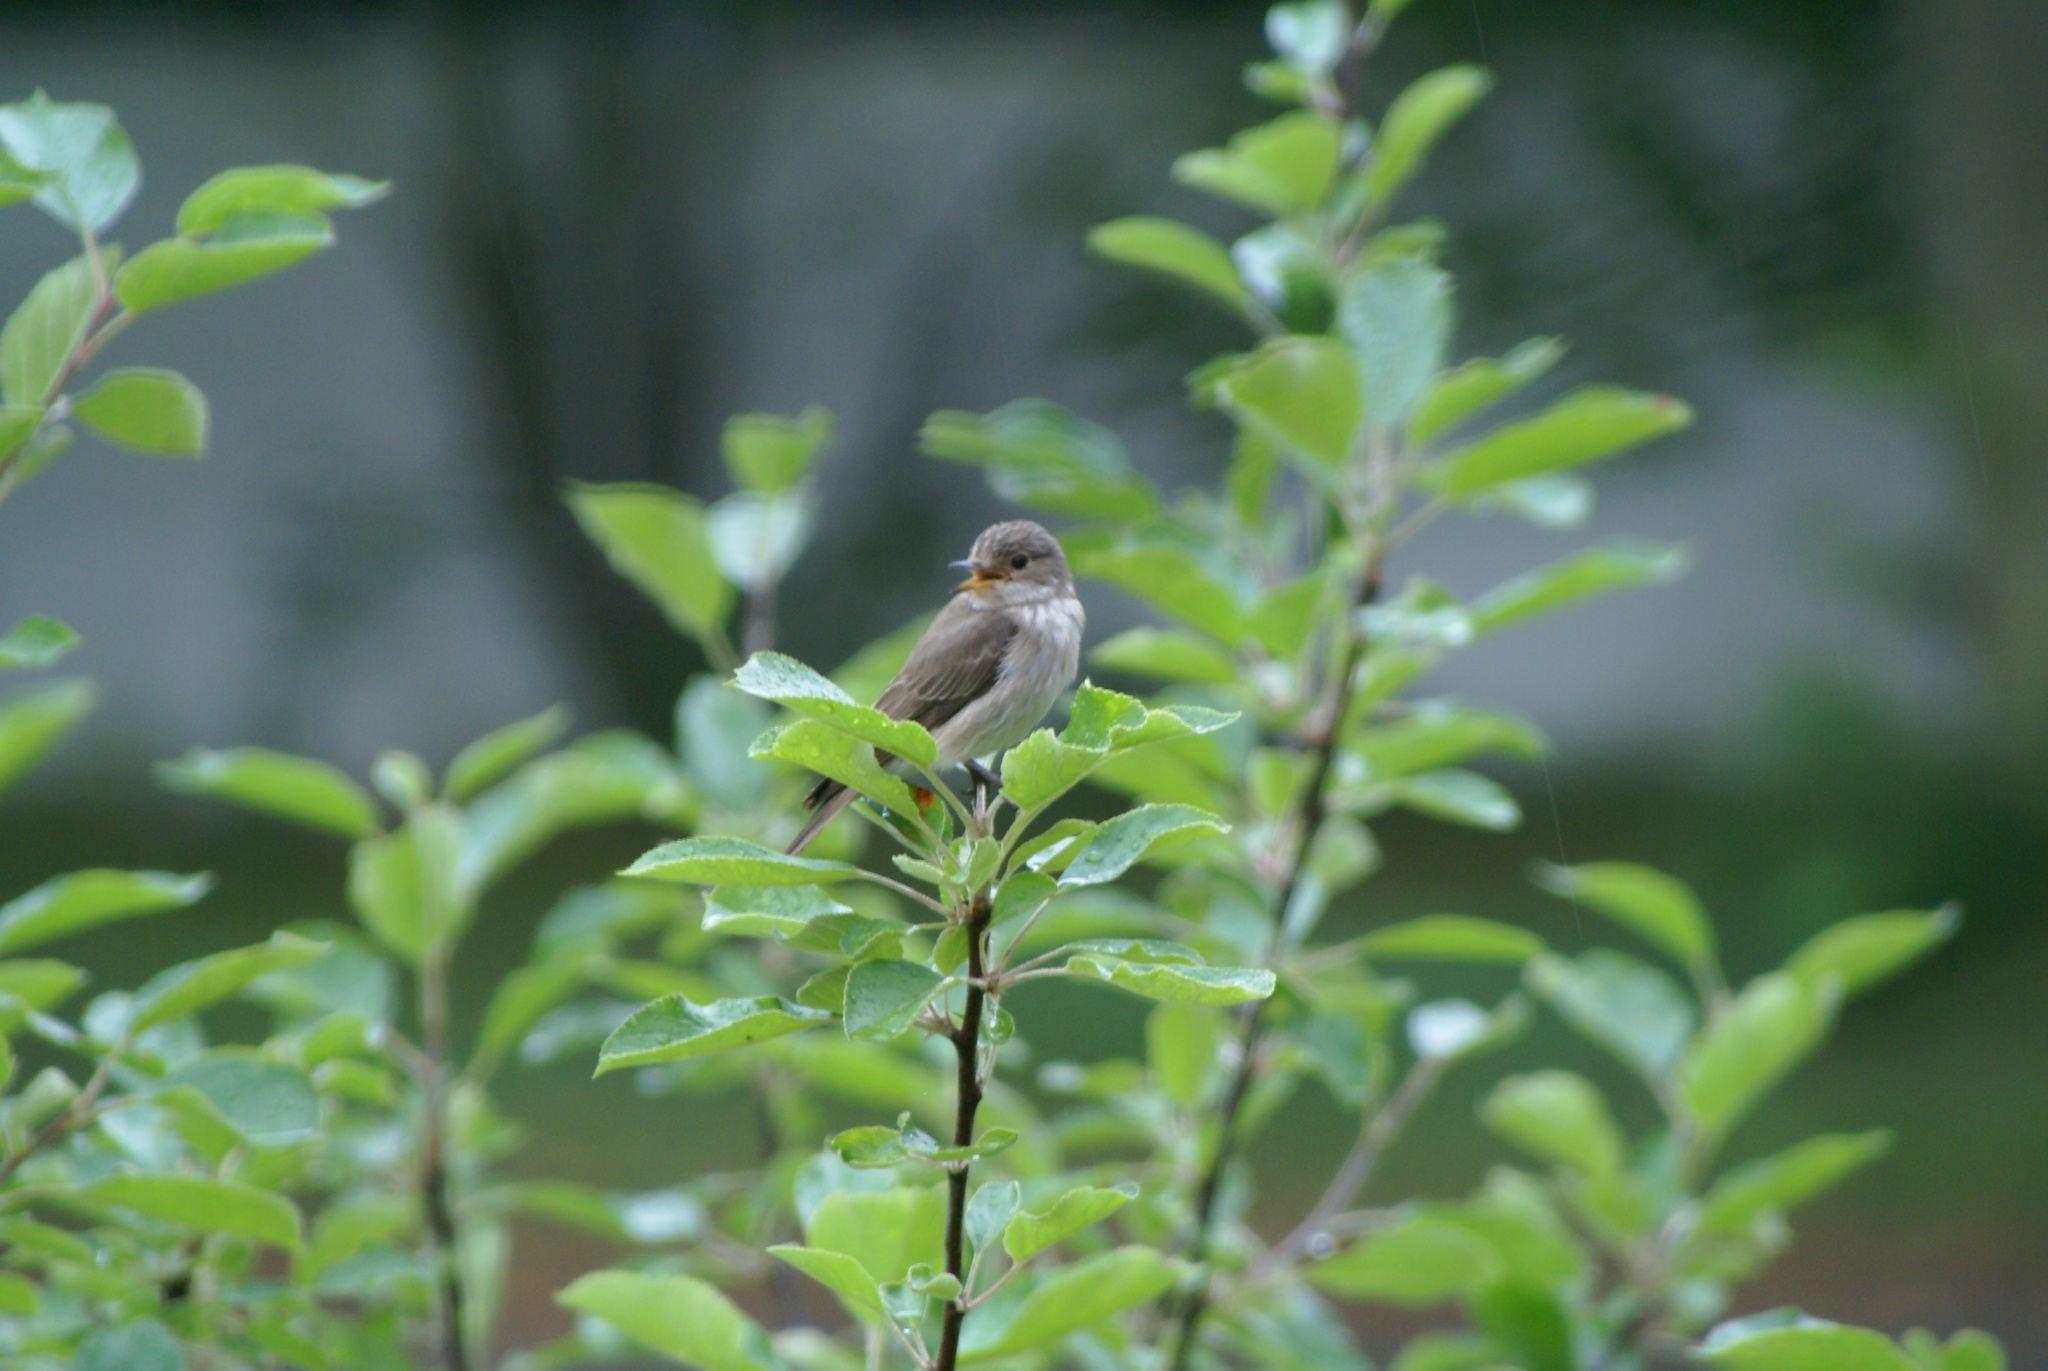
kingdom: Animalia
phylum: Chordata
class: Aves
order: Passeriformes
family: Muscicapidae
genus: Muscicapa
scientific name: Muscicapa striata
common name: Spotted flycatcher
